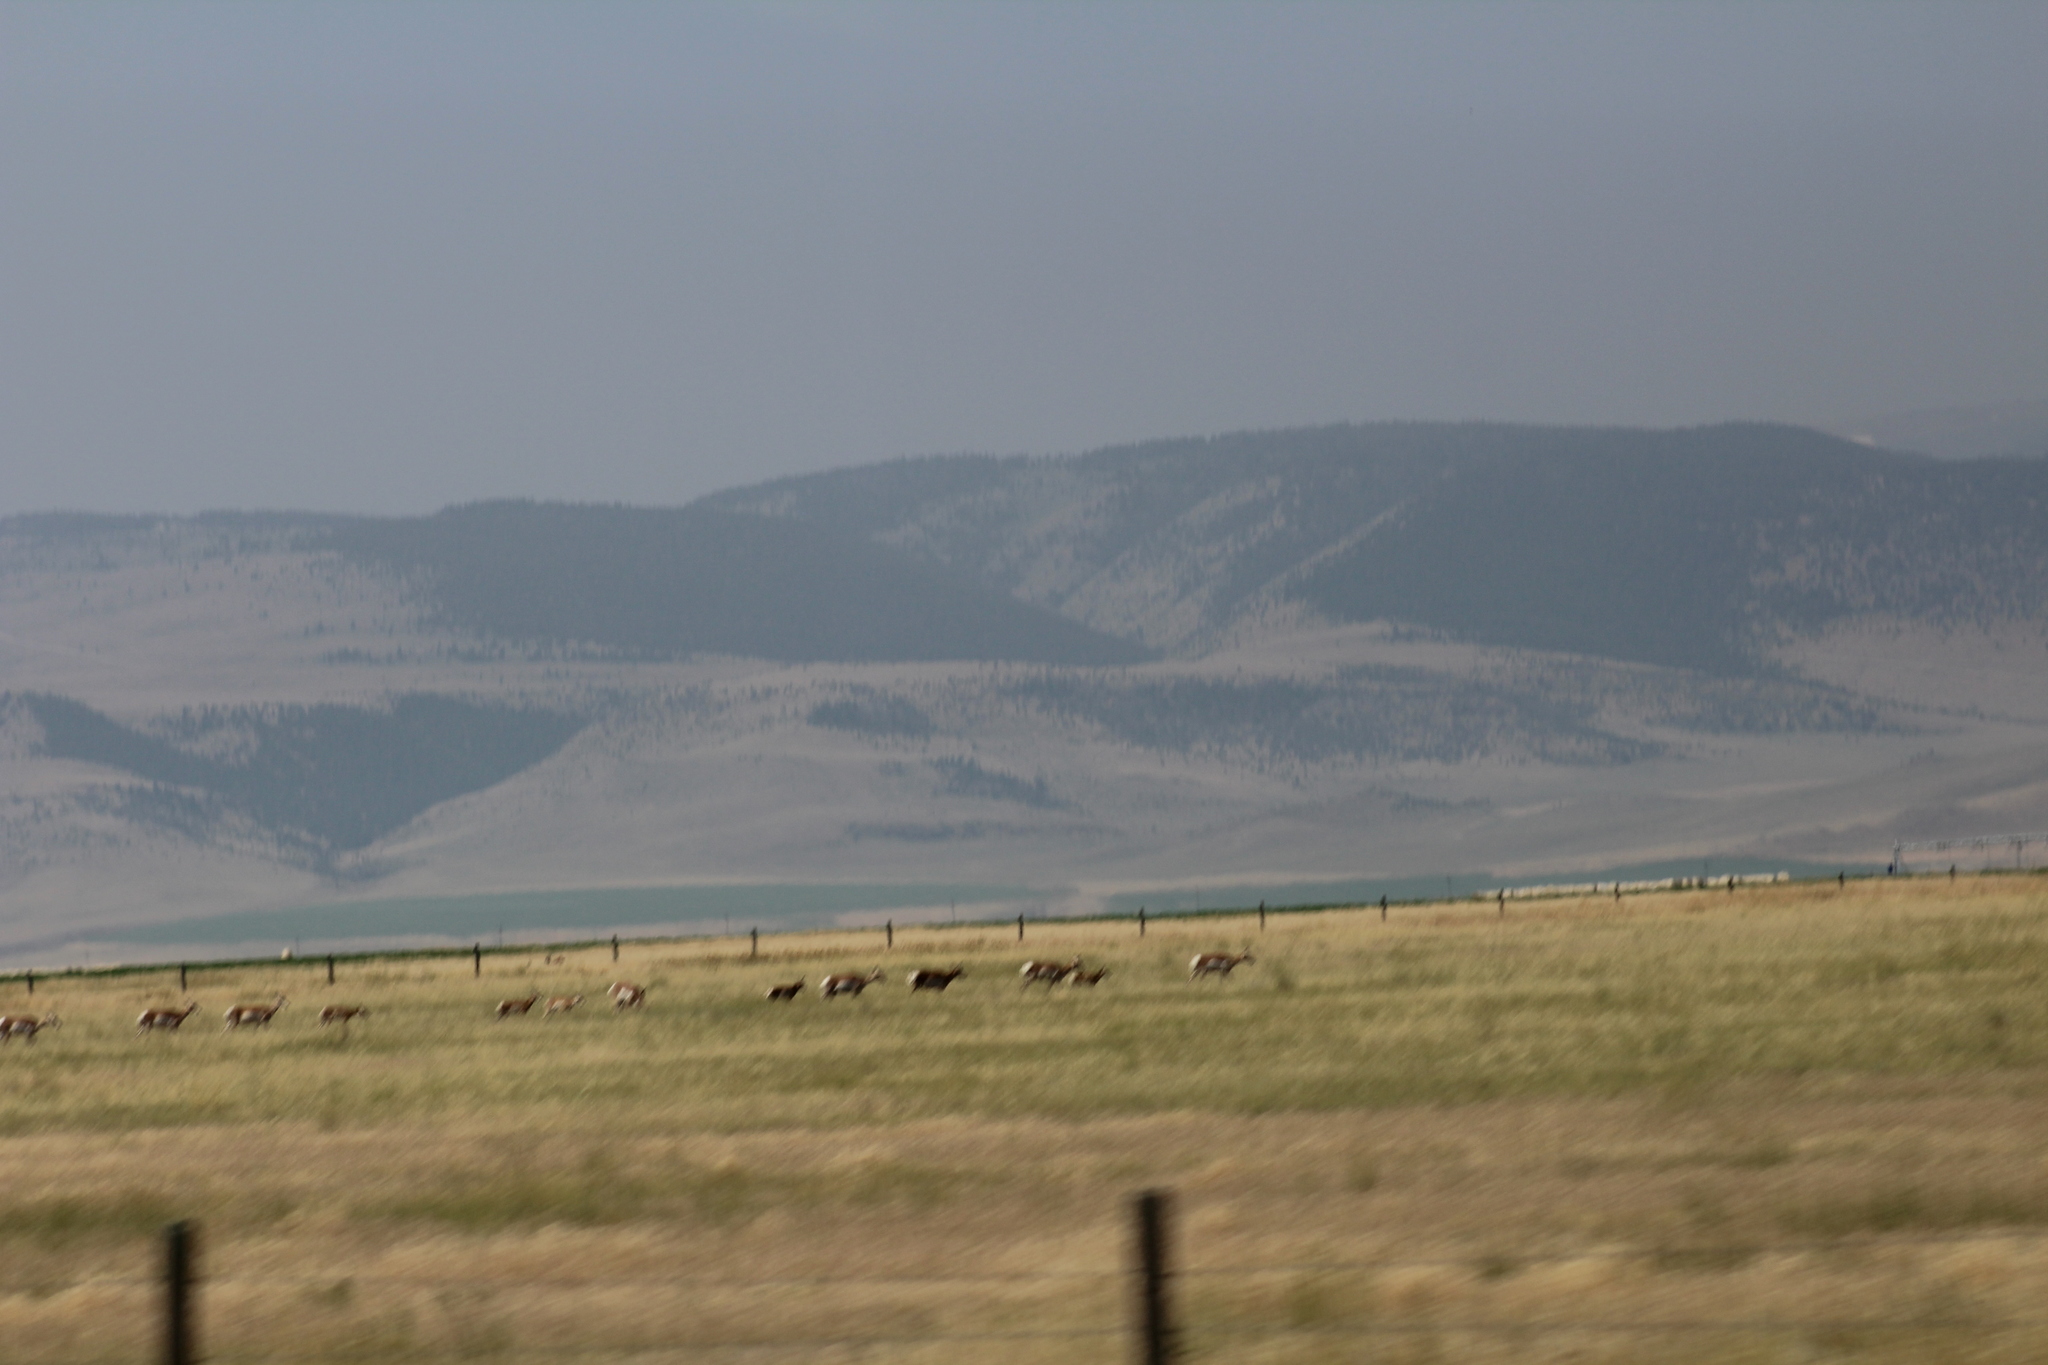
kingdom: Animalia
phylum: Chordata
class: Mammalia
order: Artiodactyla
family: Antilocapridae
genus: Antilocapra
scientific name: Antilocapra americana
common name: Pronghorn
